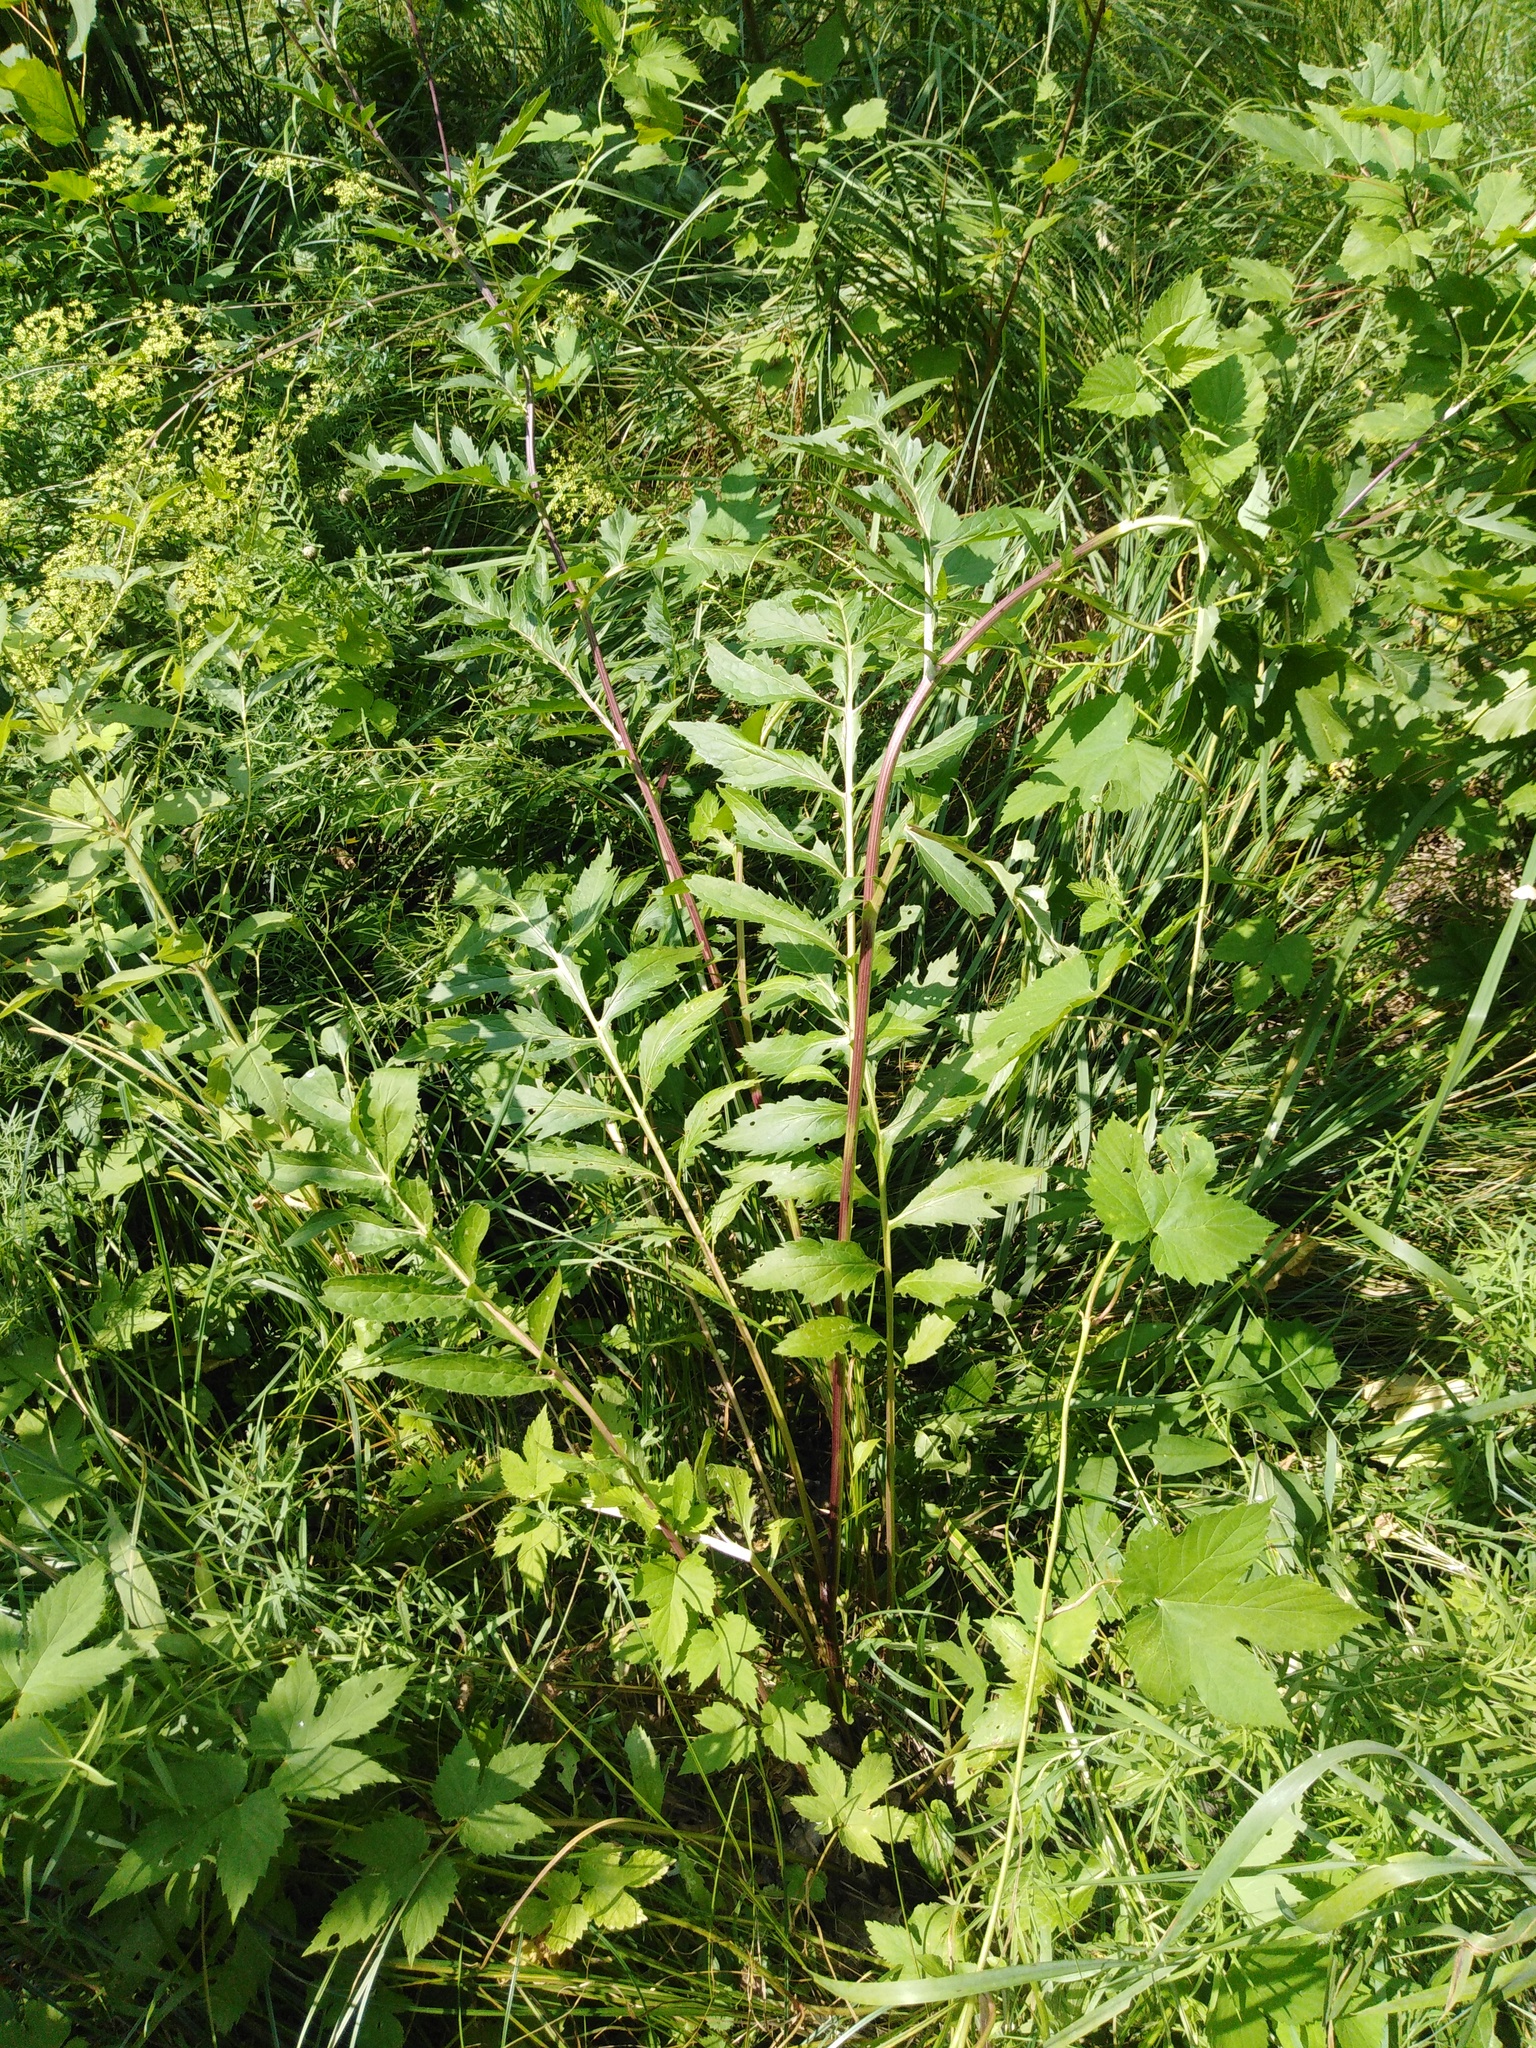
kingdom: Plantae
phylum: Tracheophyta
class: Magnoliopsida
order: Asterales
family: Asteraceae
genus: Serratula
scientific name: Serratula coronata
